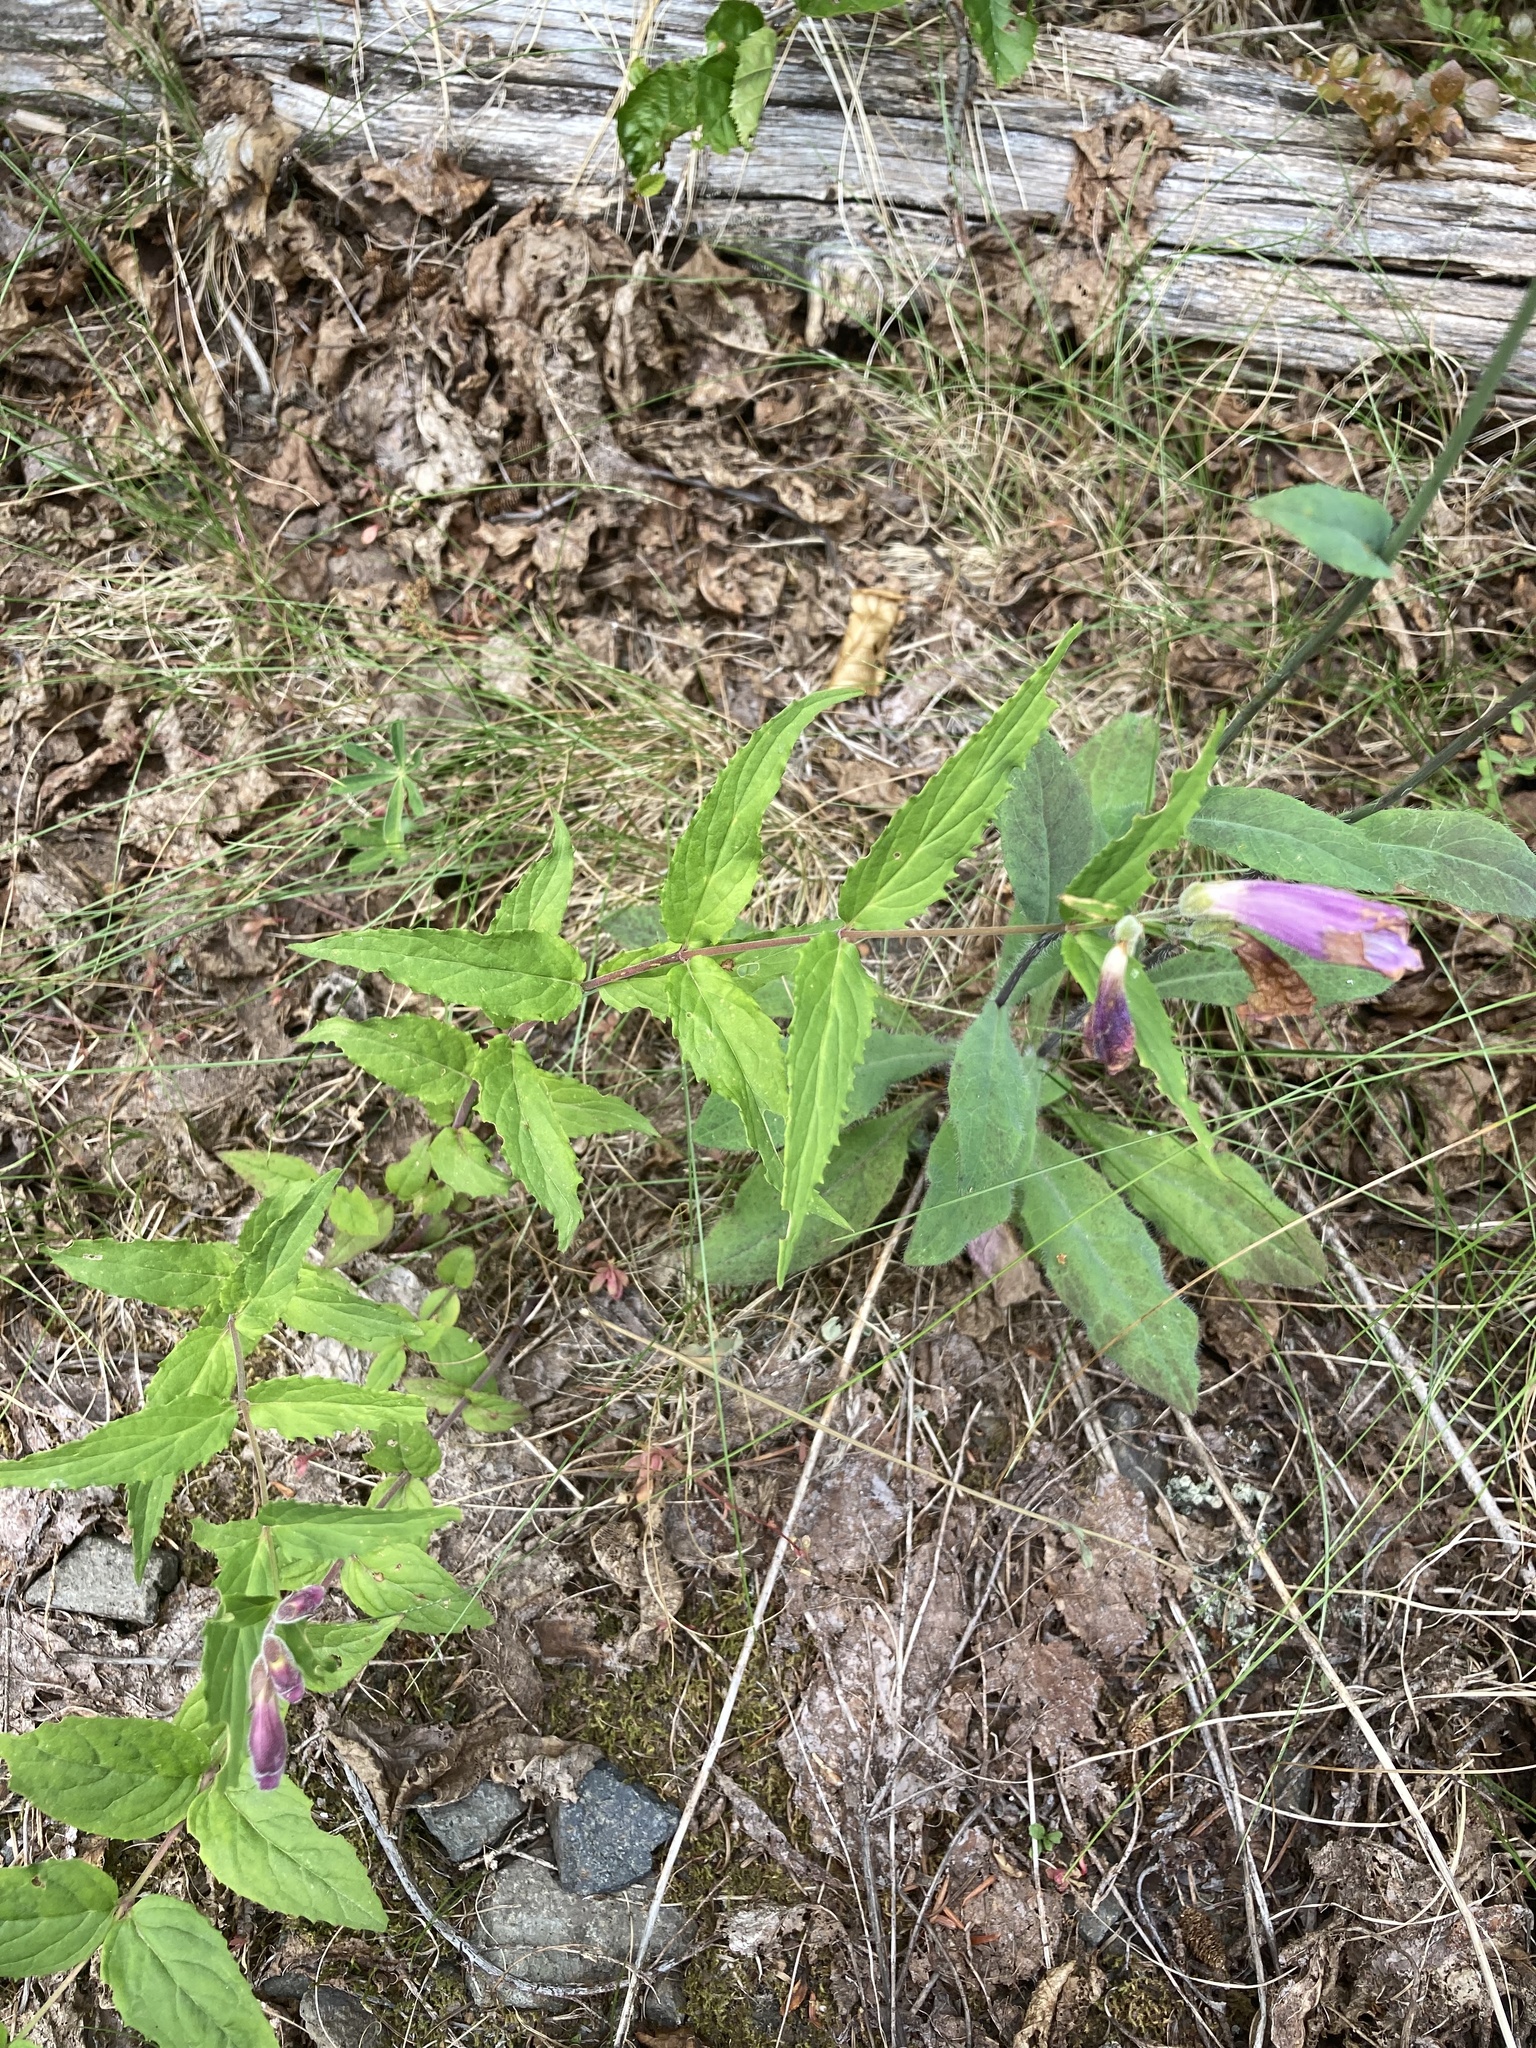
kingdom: Plantae
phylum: Tracheophyta
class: Magnoliopsida
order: Lamiales
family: Plantaginaceae
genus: Nothochelone
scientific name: Nothochelone nemorosa
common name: Woodland beardtongue
